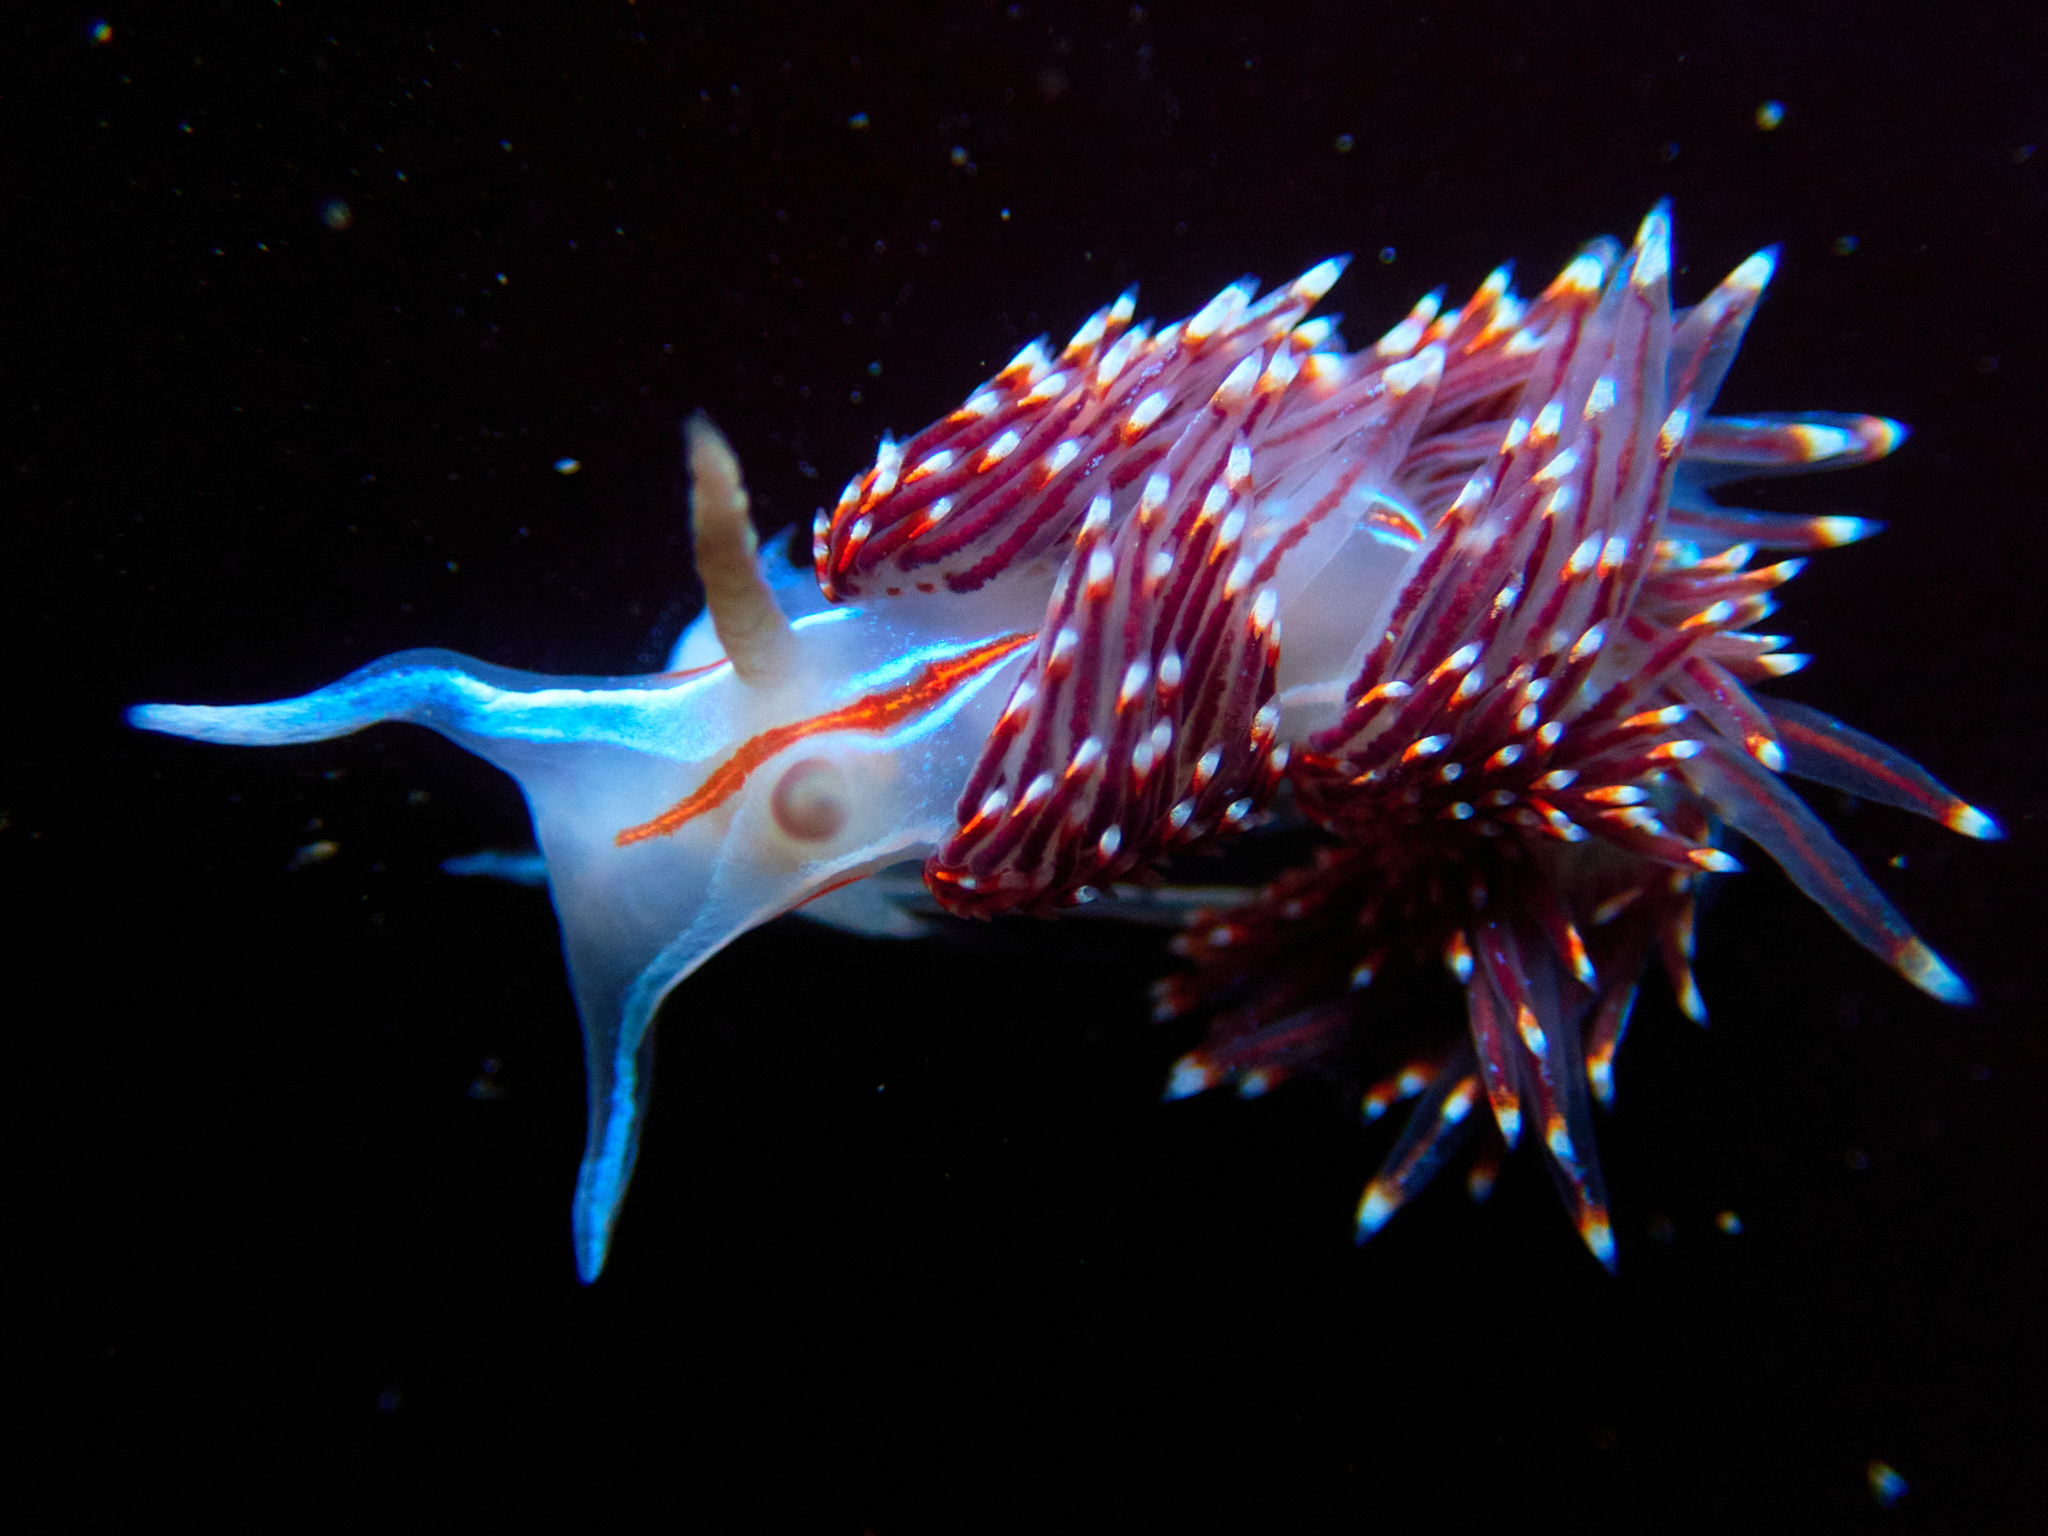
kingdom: Animalia
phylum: Mollusca
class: Gastropoda
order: Nudibranchia
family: Myrrhinidae
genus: Hermissenda
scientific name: Hermissenda opalescens
